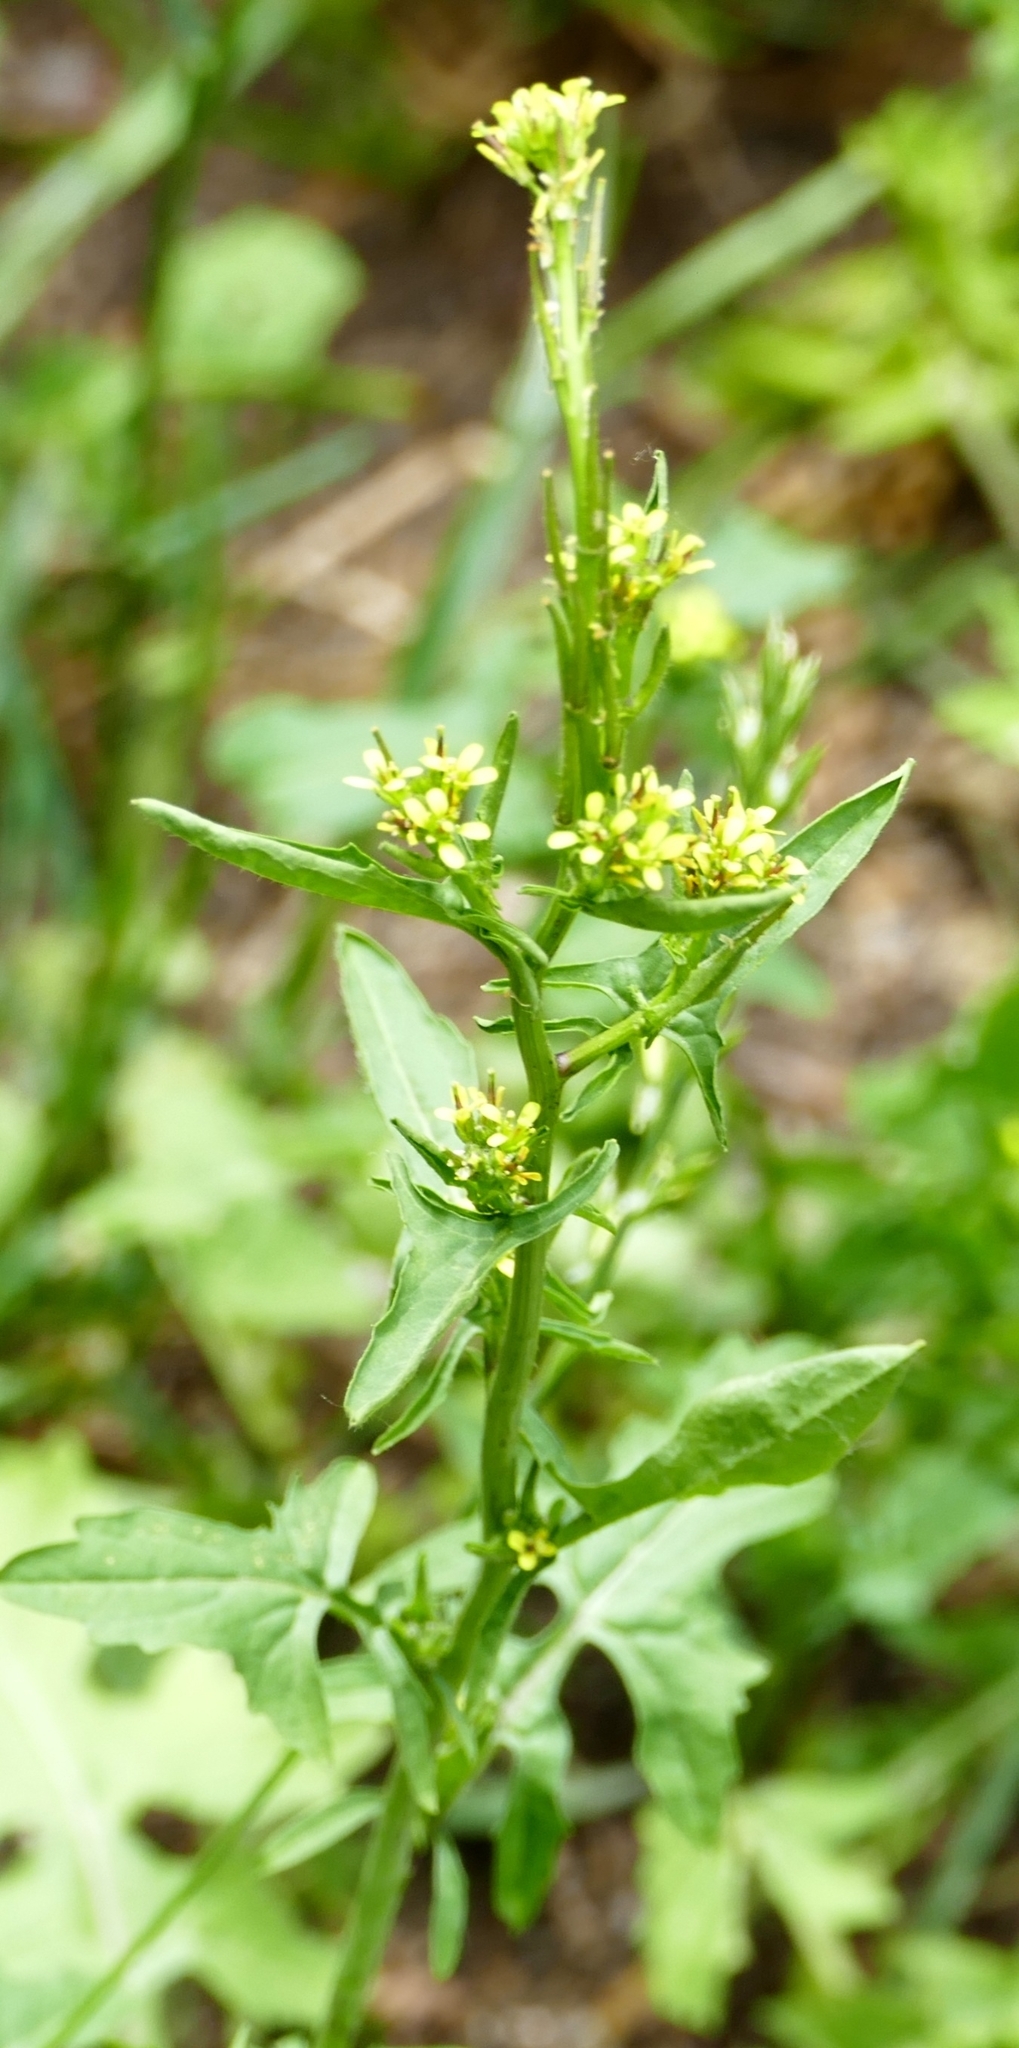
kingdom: Plantae
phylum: Tracheophyta
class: Magnoliopsida
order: Brassicales
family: Brassicaceae
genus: Sisymbrium
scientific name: Sisymbrium officinale
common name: Hedge mustard
